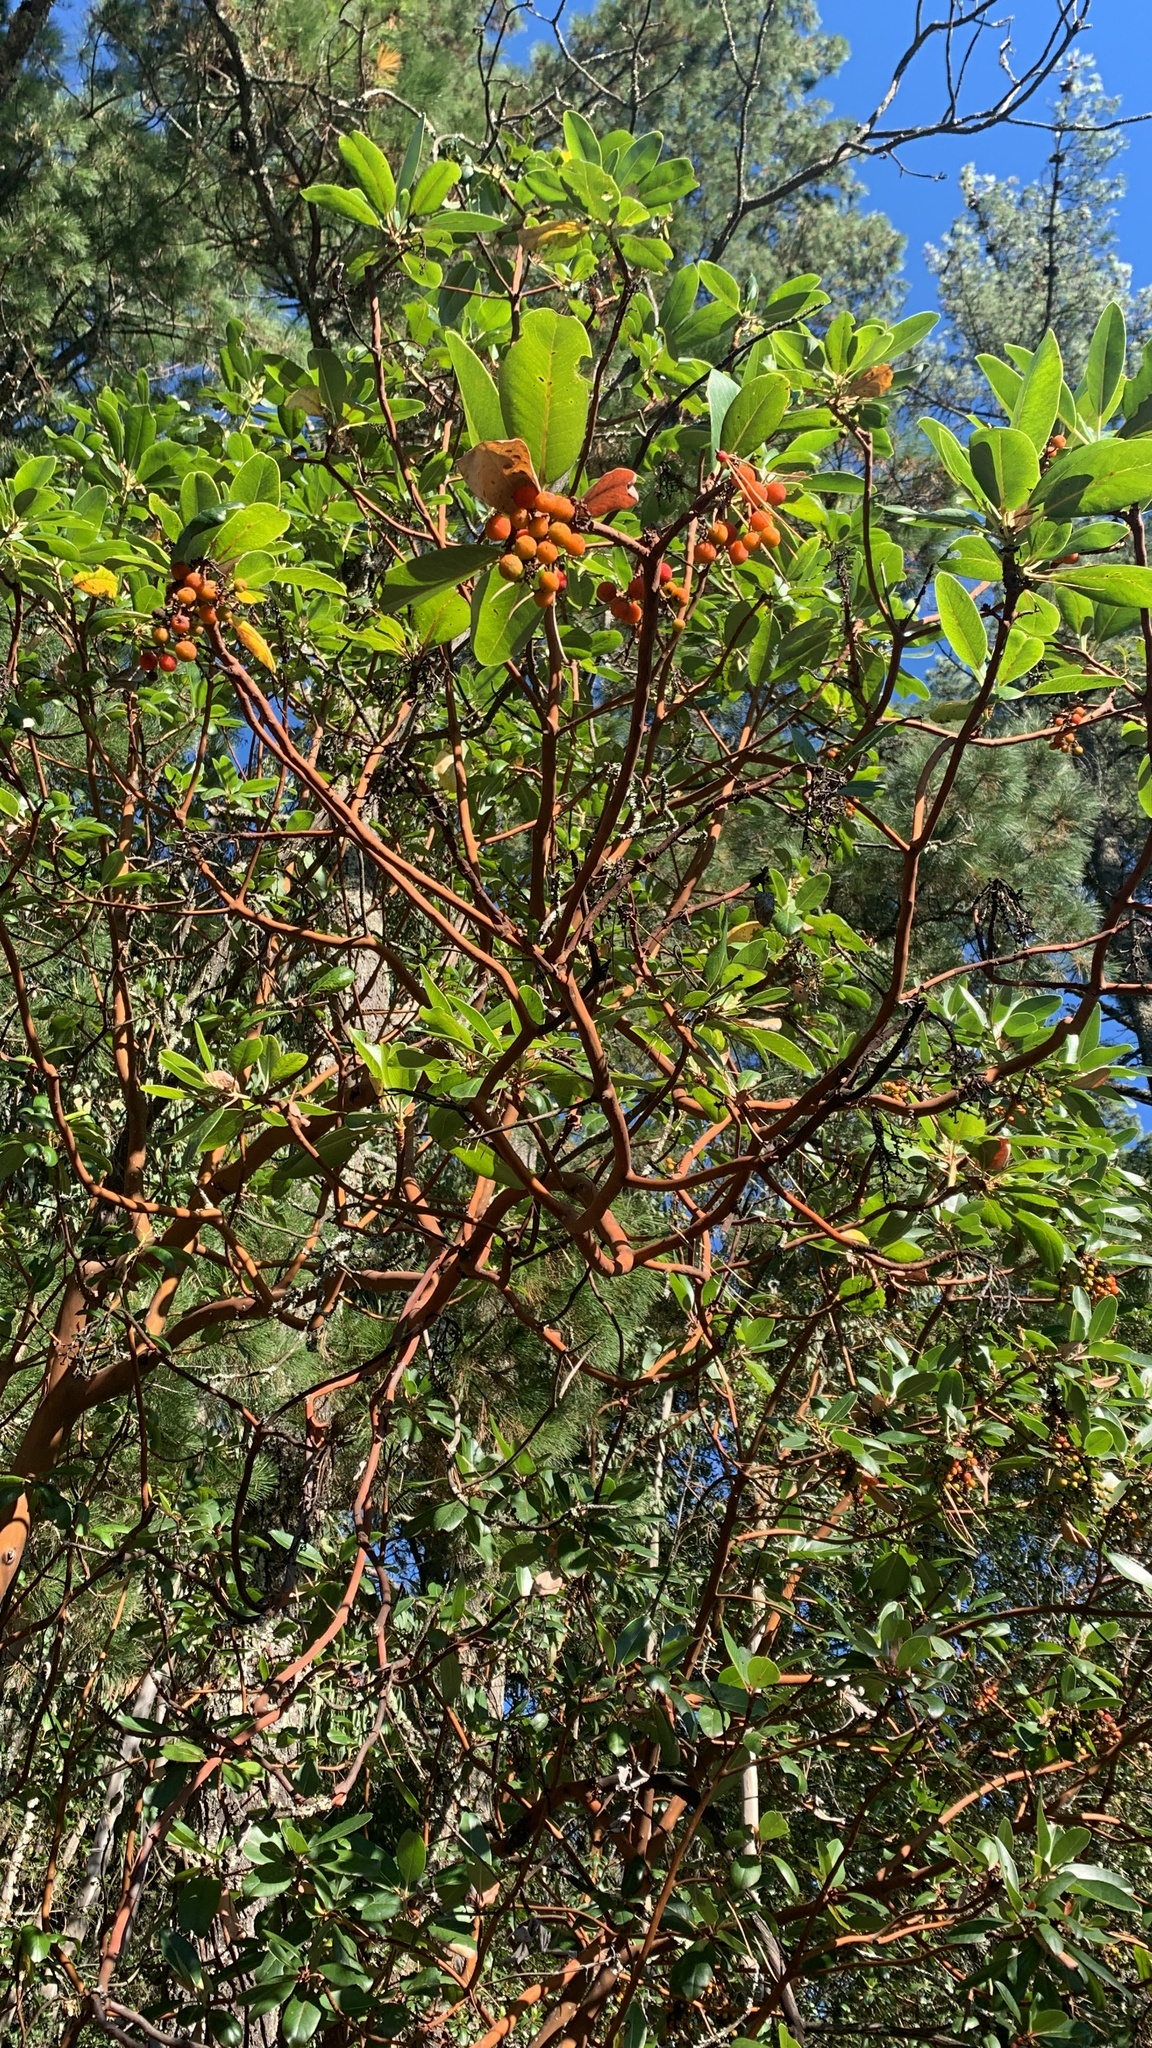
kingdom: Plantae
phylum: Tracheophyta
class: Magnoliopsida
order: Ericales
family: Ericaceae
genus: Arbutus
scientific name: Arbutus menziesii
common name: Pacific madrone
